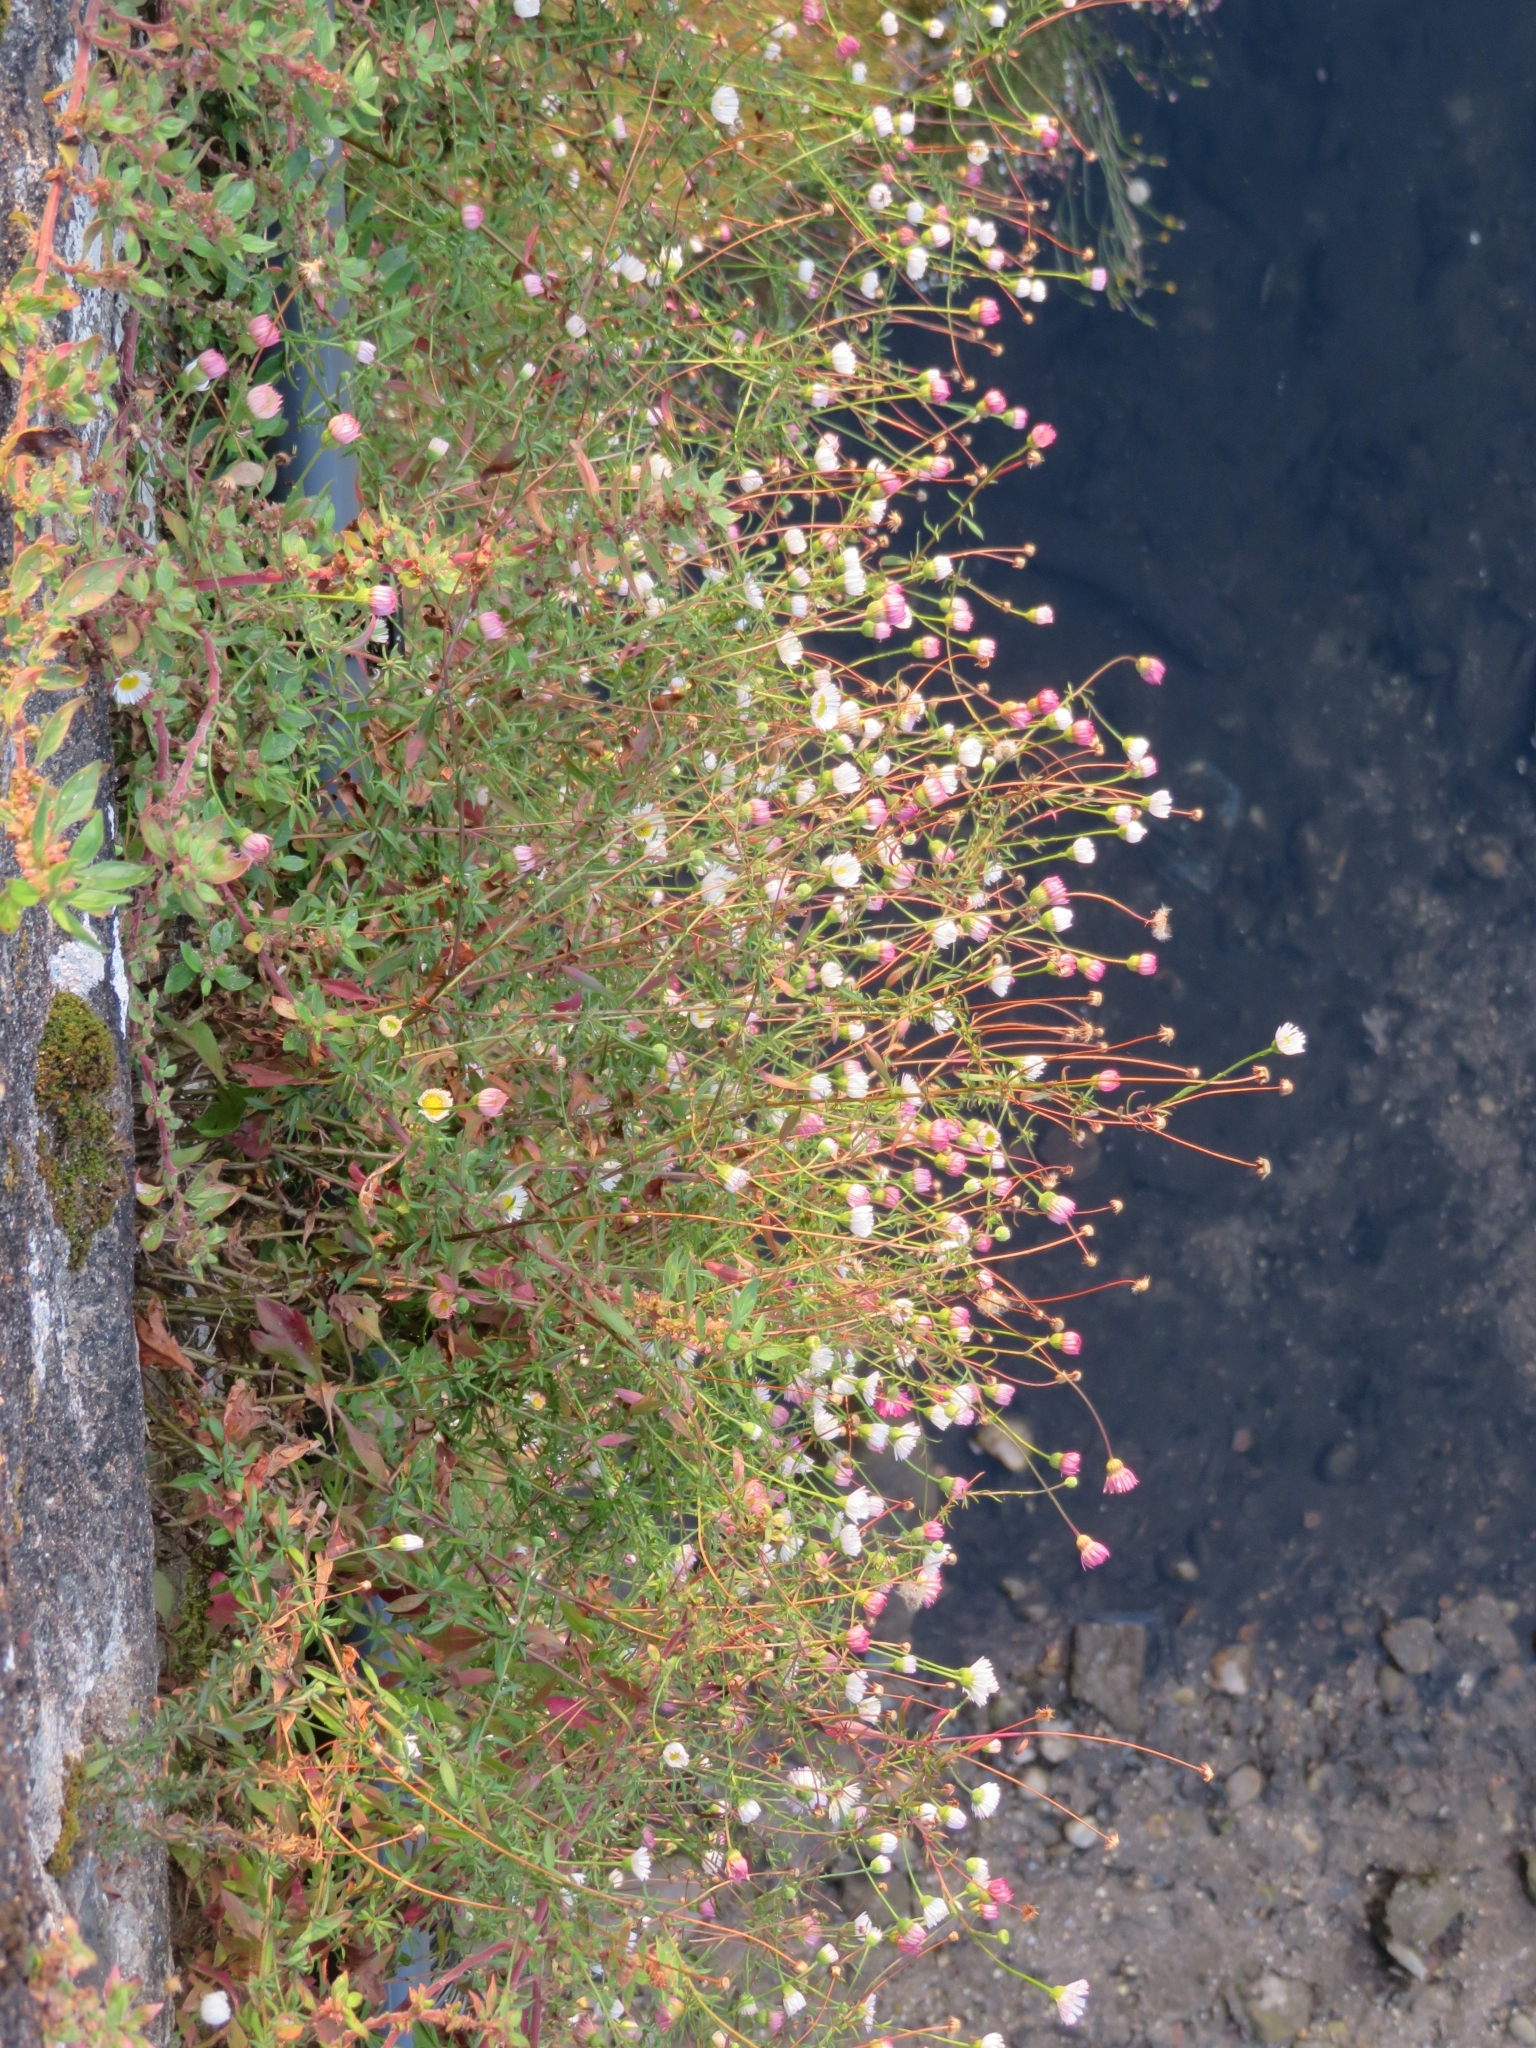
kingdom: Plantae
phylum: Tracheophyta
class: Magnoliopsida
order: Asterales
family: Asteraceae
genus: Erigeron
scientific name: Erigeron karvinskianus
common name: Mexican fleabane
